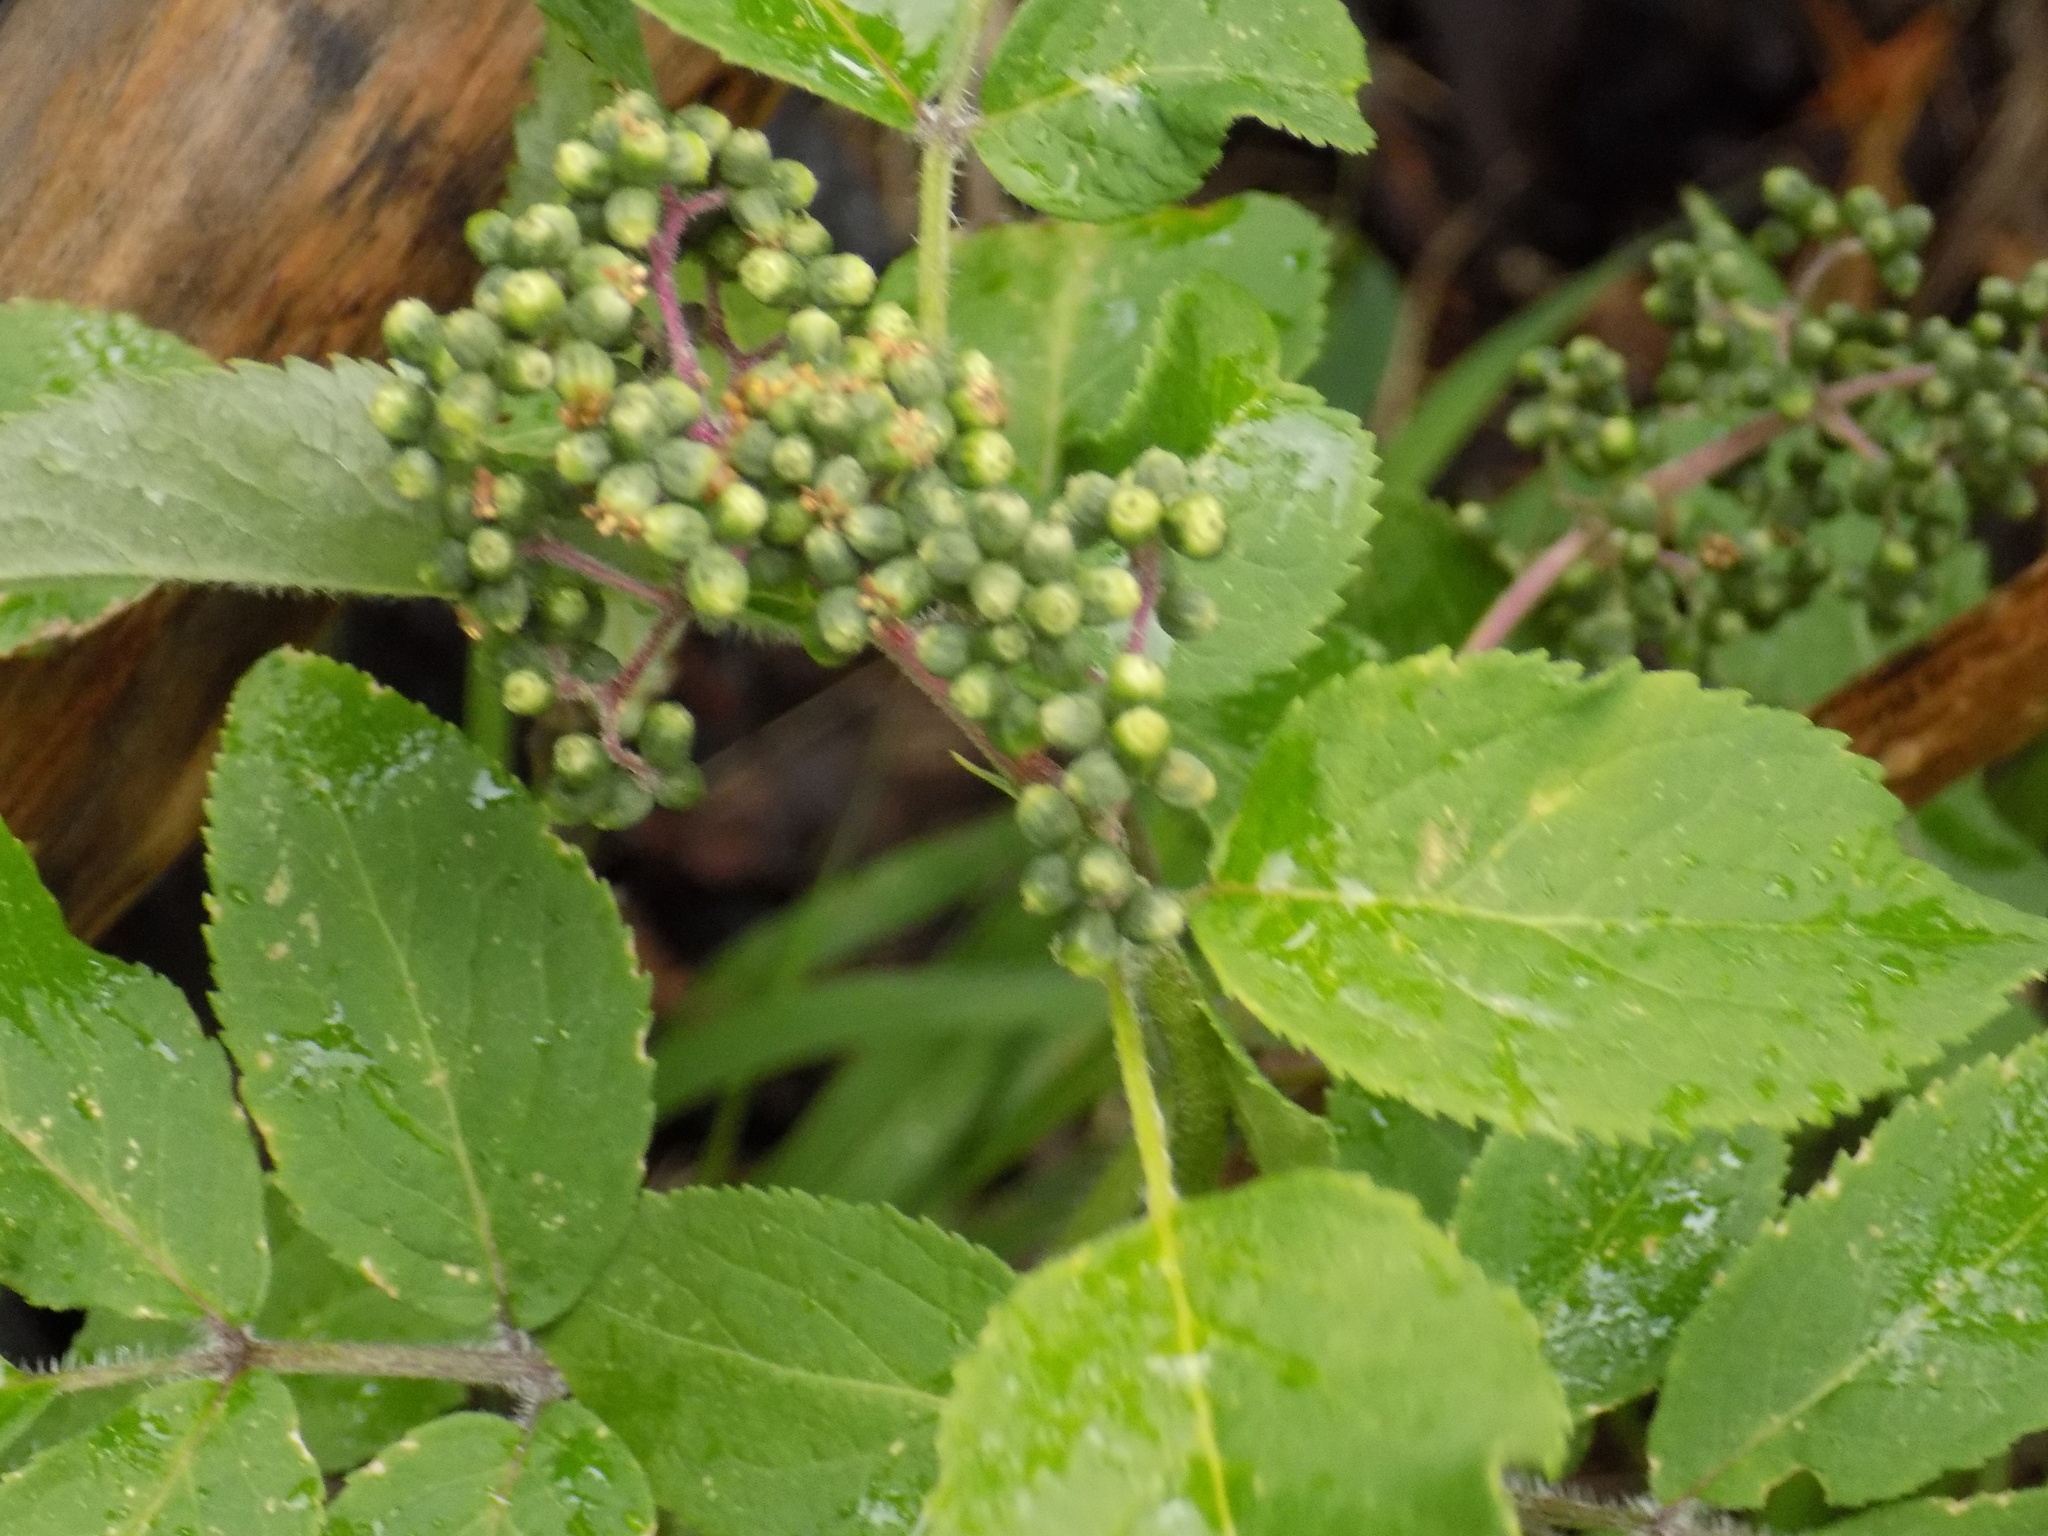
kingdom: Plantae
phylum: Tracheophyta
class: Magnoliopsida
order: Dipsacales
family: Viburnaceae
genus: Sambucus
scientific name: Sambucus sibirica
